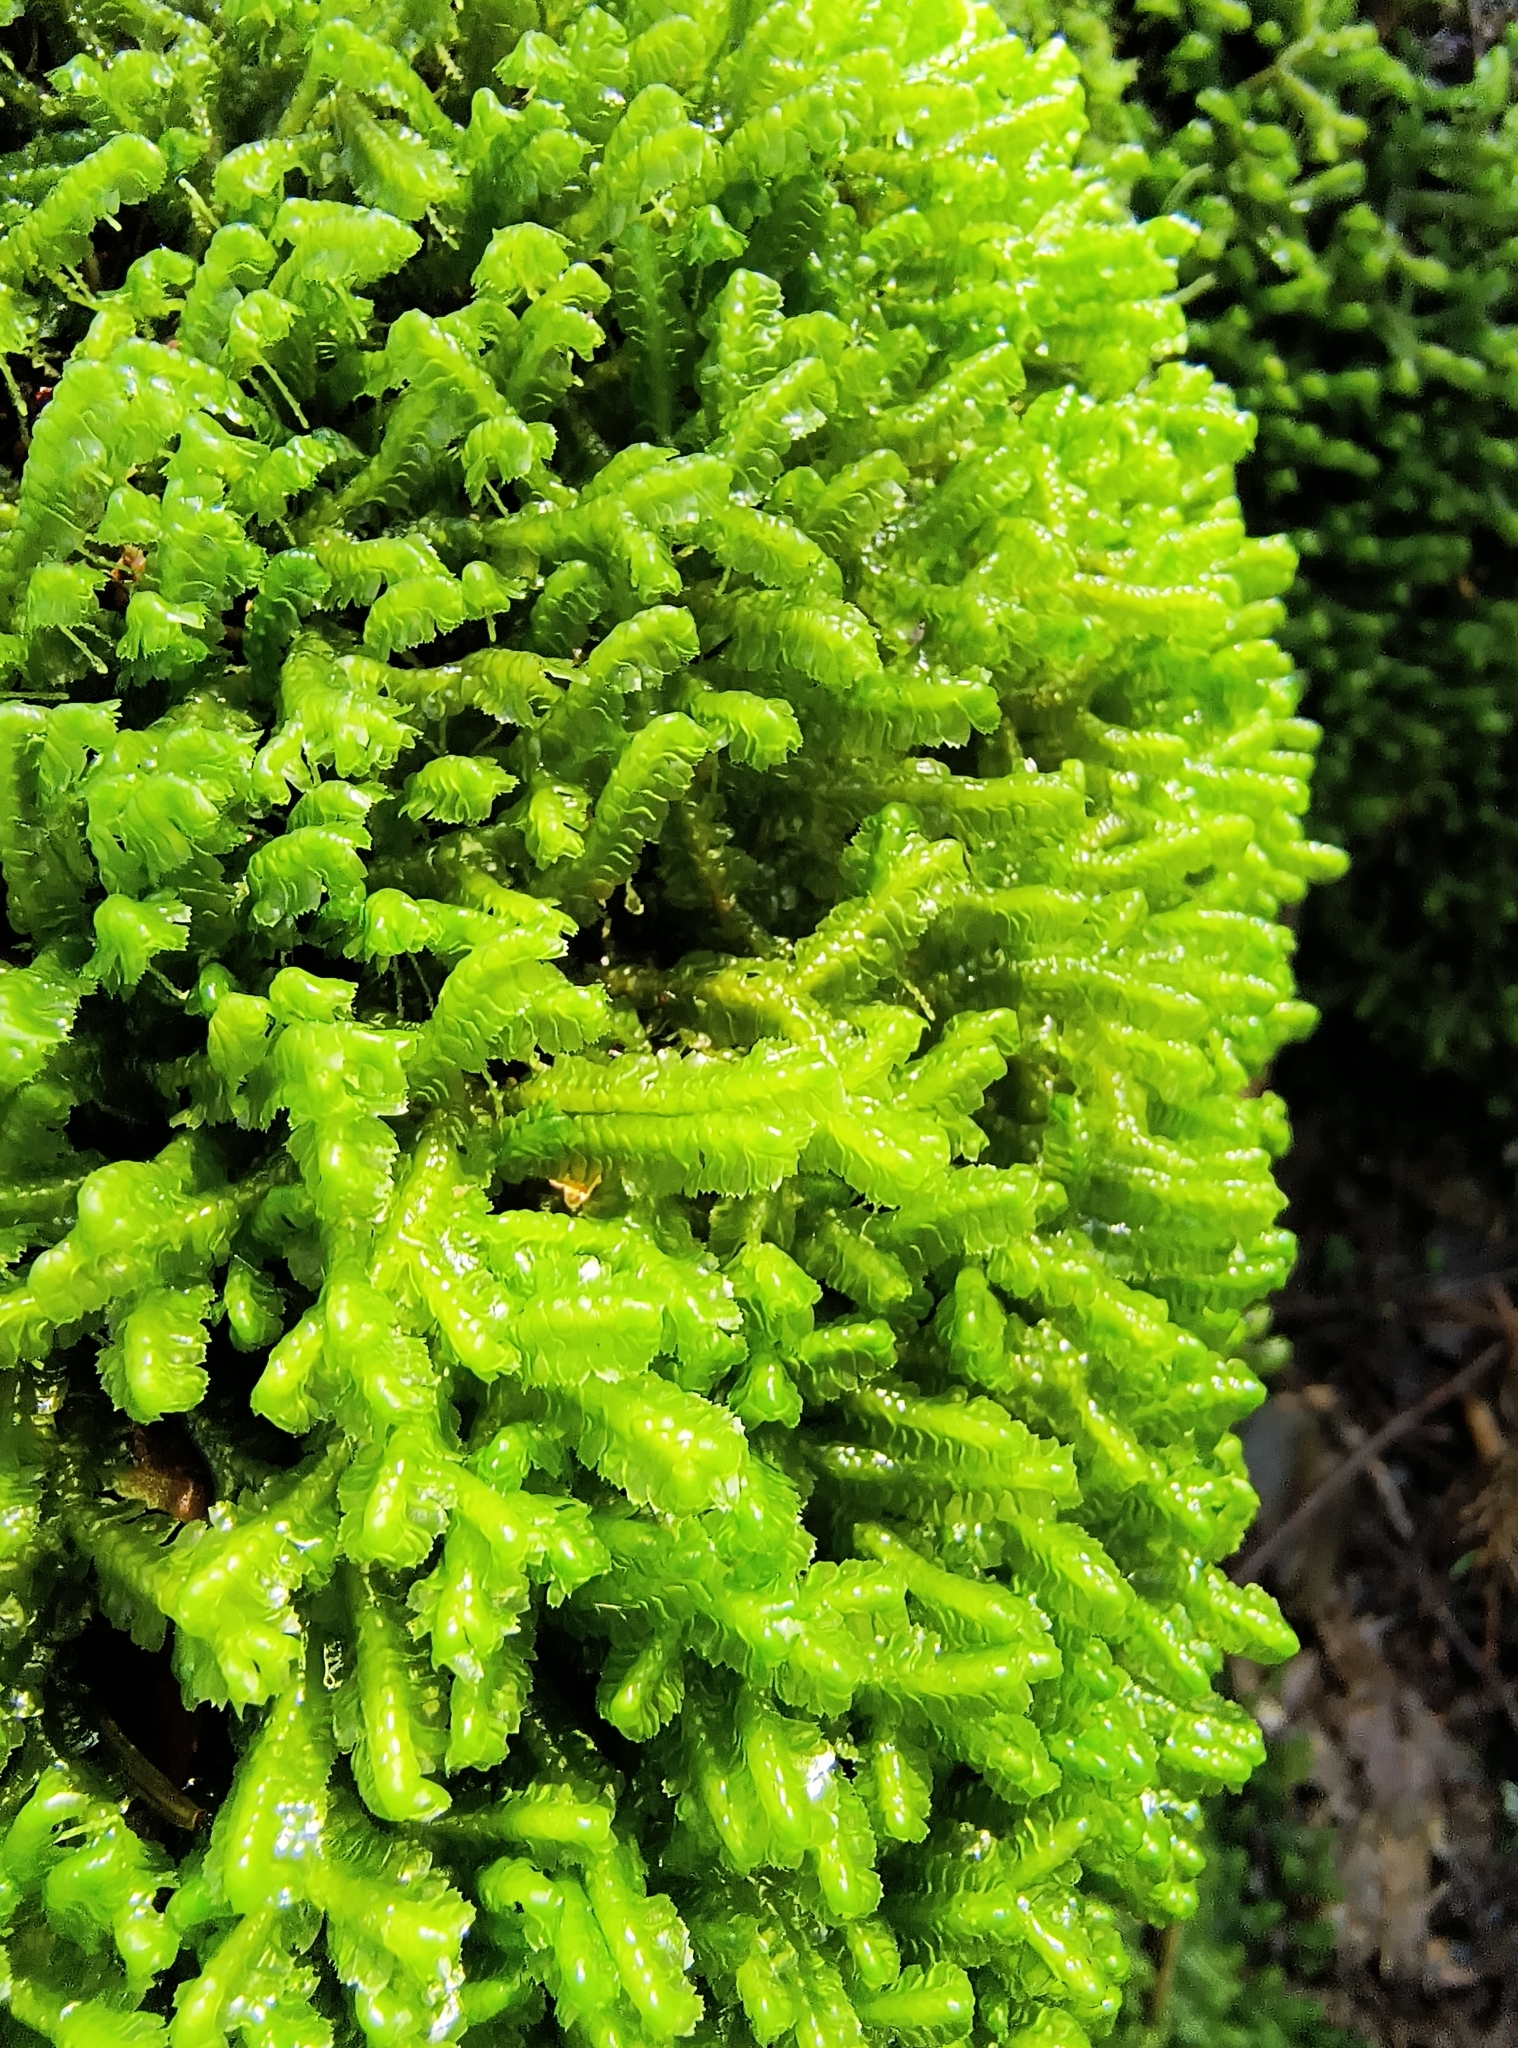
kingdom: Plantae
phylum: Marchantiophyta
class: Jungermanniopsida
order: Jungermanniales
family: Lepidoziaceae
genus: Bazzania
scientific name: Bazzania trilobata
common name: Three-lobed whipwort
